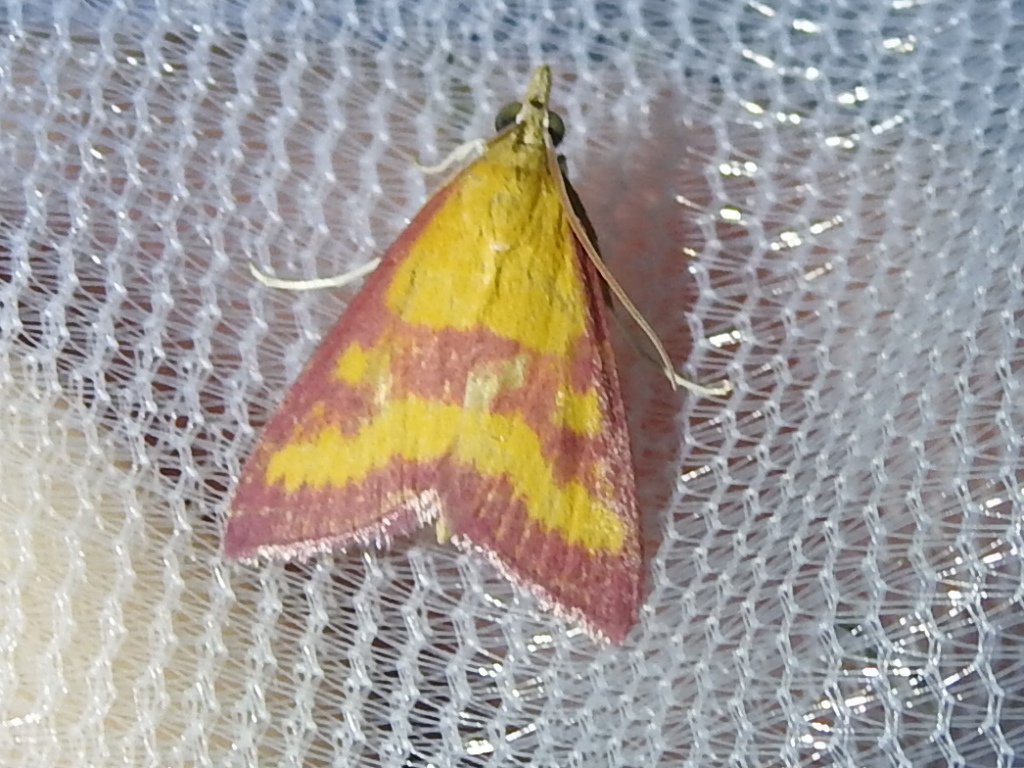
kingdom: Animalia
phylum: Arthropoda
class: Insecta
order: Lepidoptera
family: Crambidae
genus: Pyrausta
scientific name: Pyrausta laticlavia
